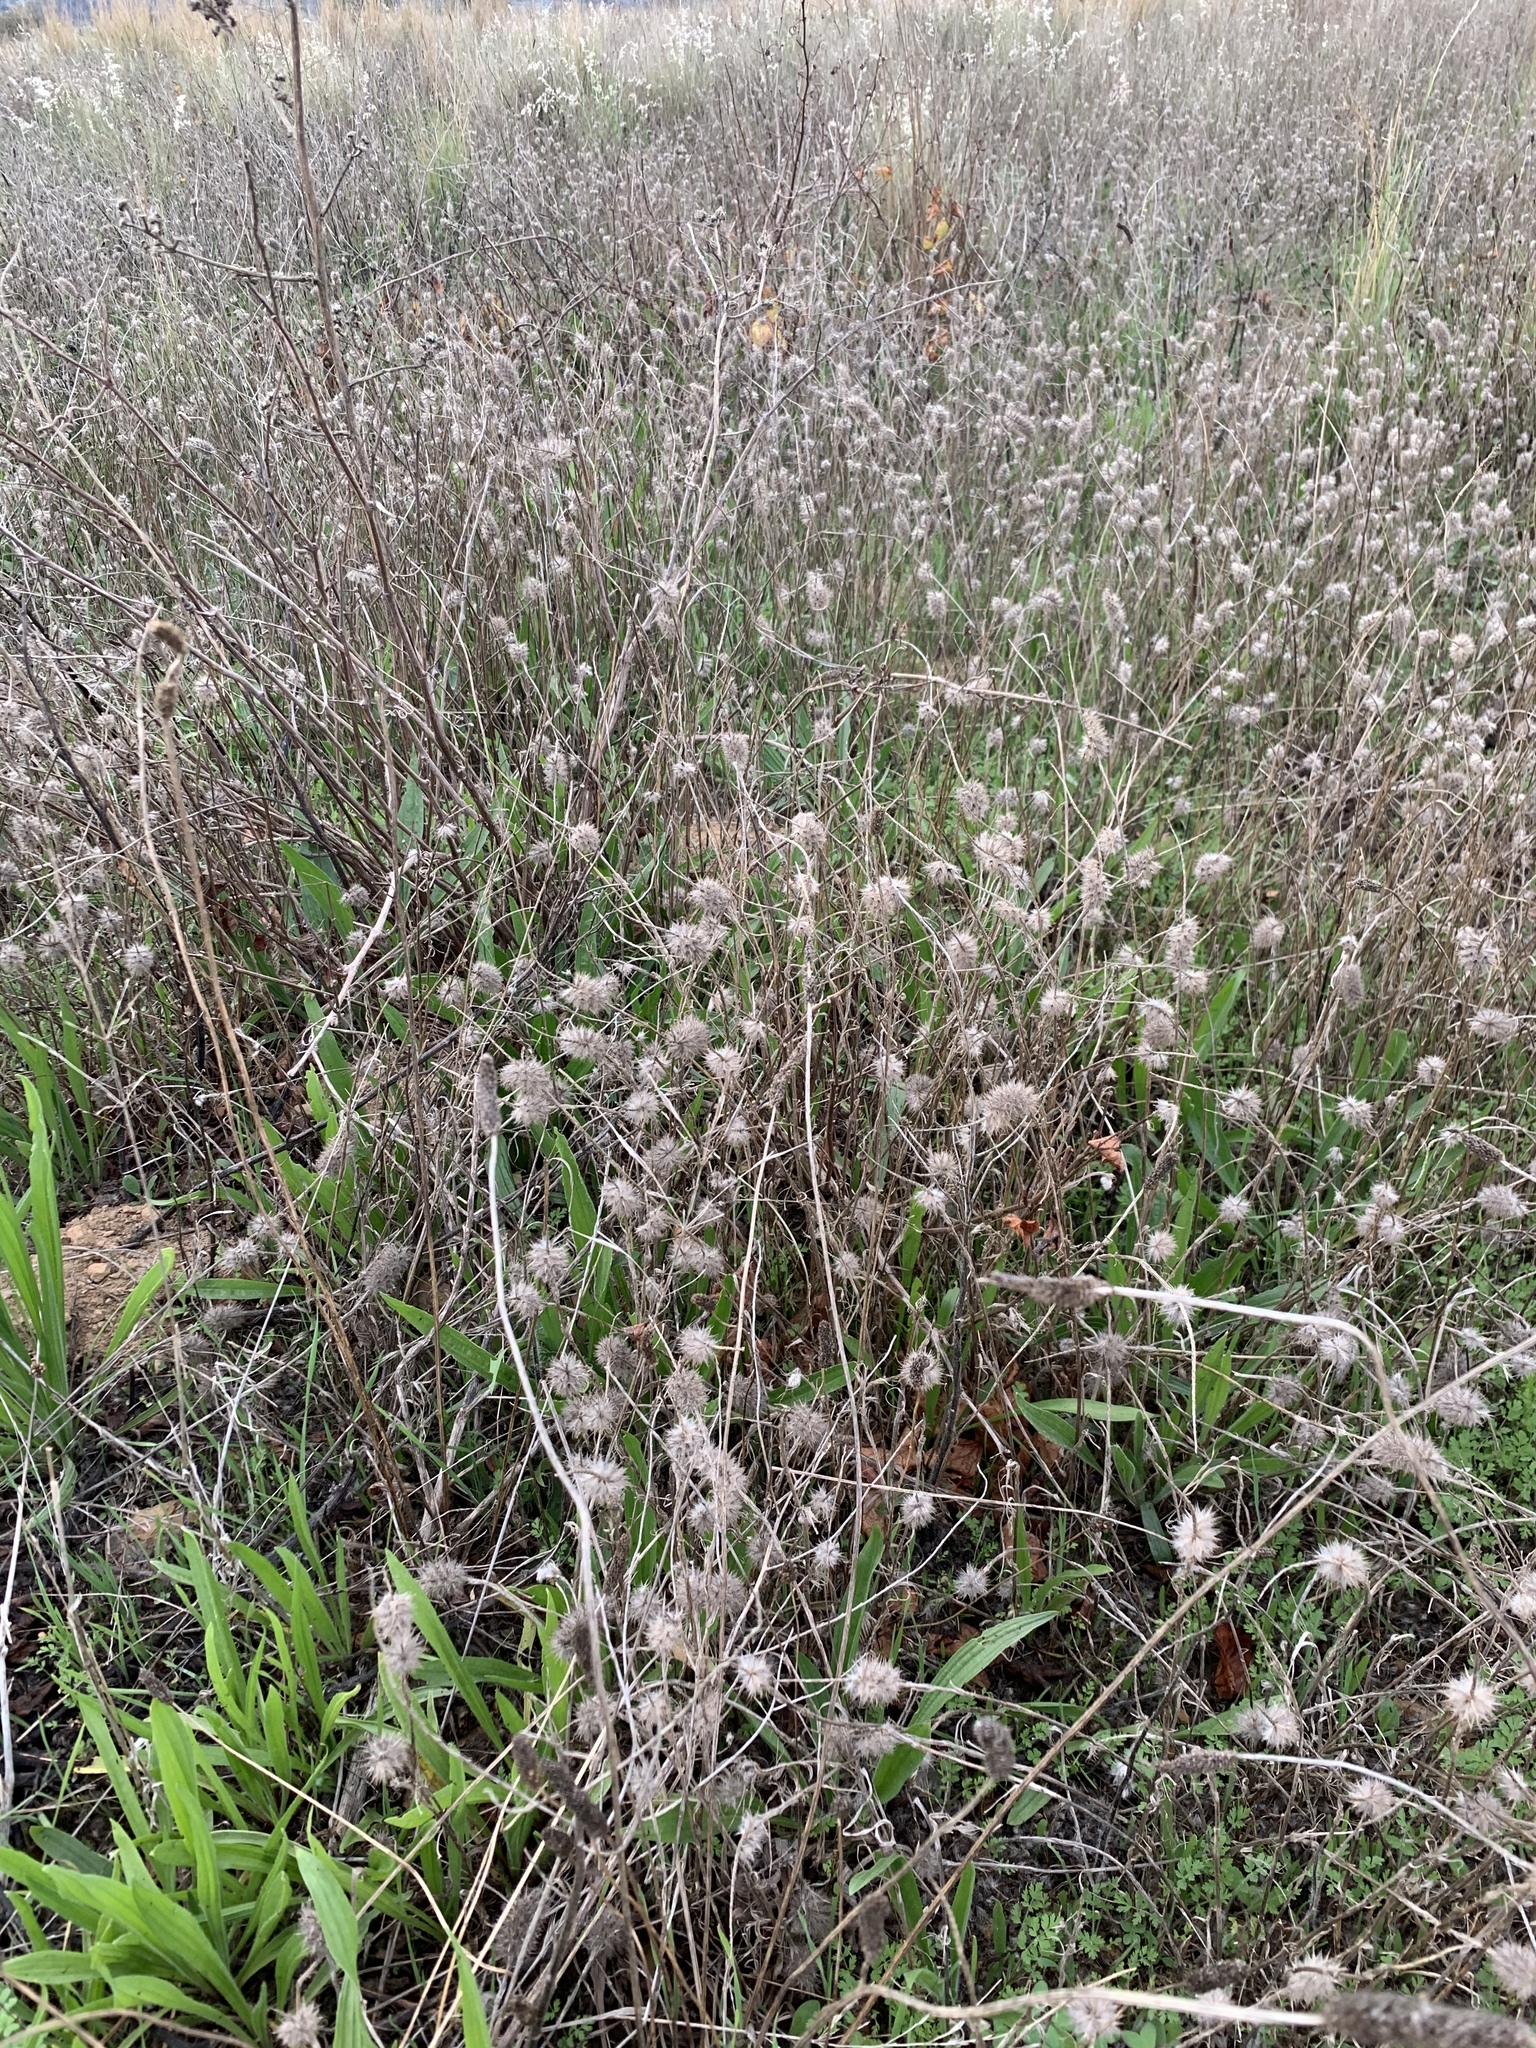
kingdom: Plantae
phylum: Tracheophyta
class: Magnoliopsida
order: Fabales
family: Fabaceae
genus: Trifolium
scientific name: Trifolium angustifolium
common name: Narrow clover
